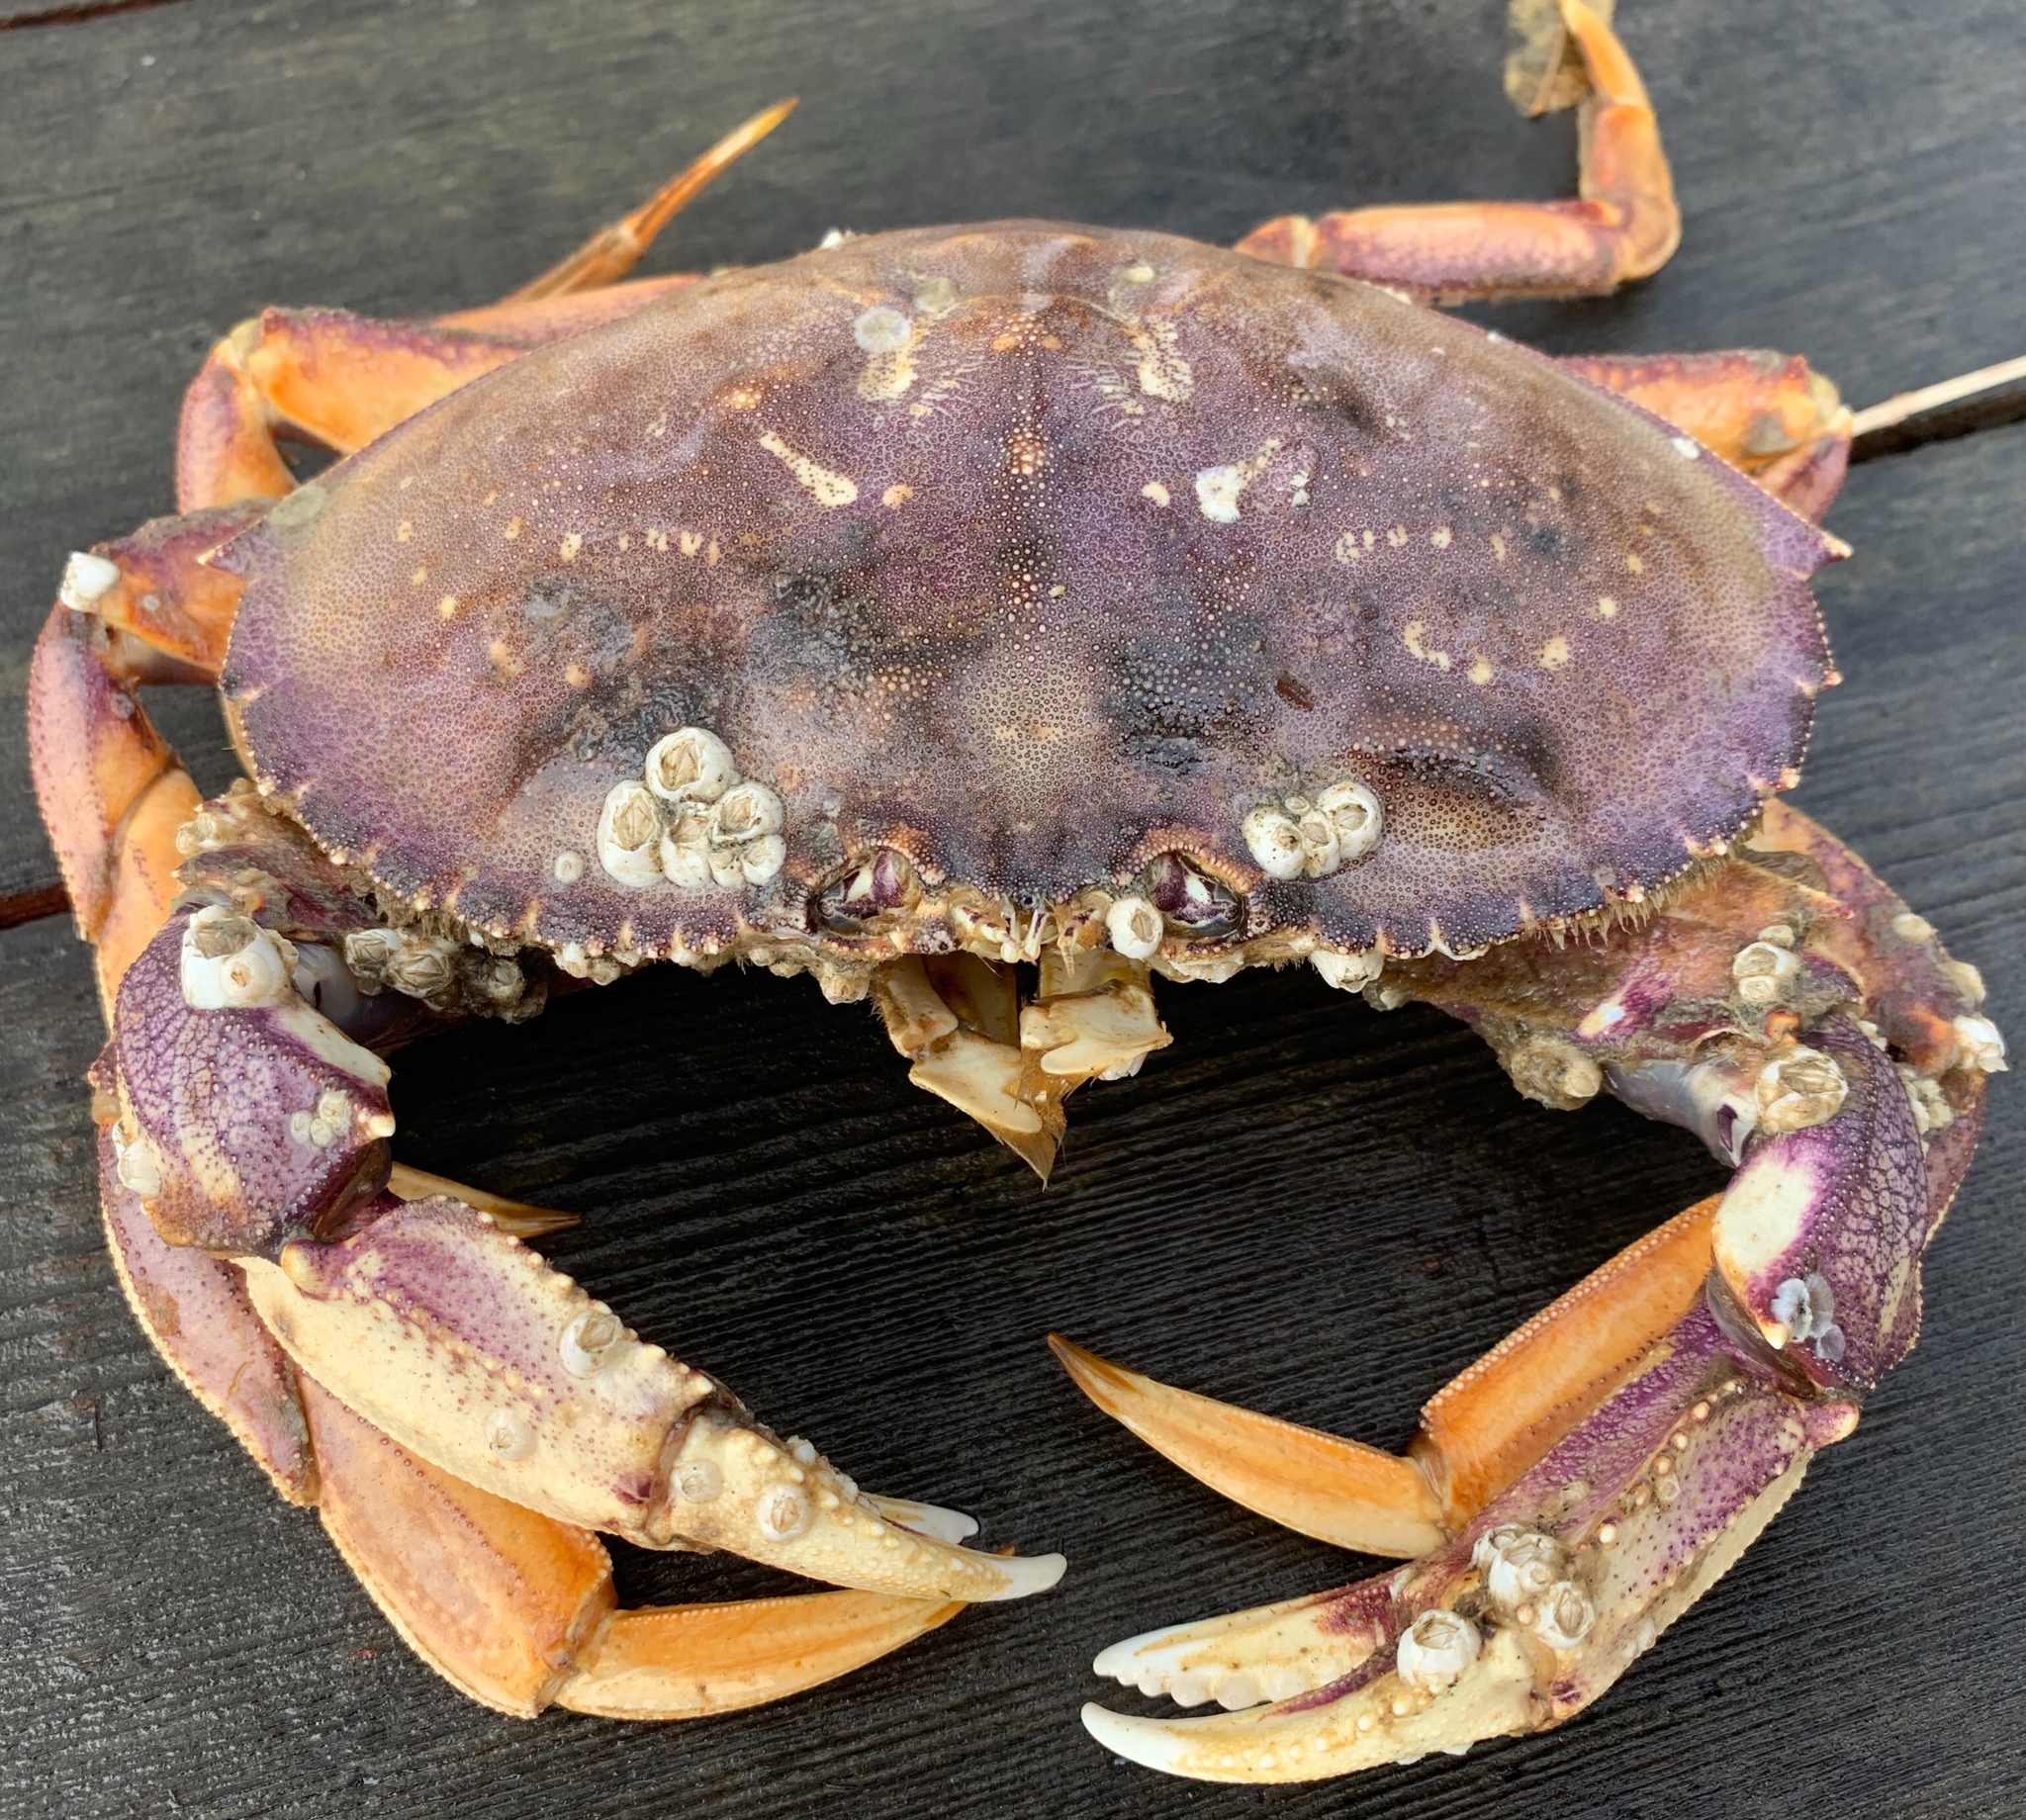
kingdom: Animalia
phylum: Arthropoda
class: Malacostraca
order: Decapoda
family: Cancridae
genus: Metacarcinus
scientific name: Metacarcinus magister
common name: Californian crab
